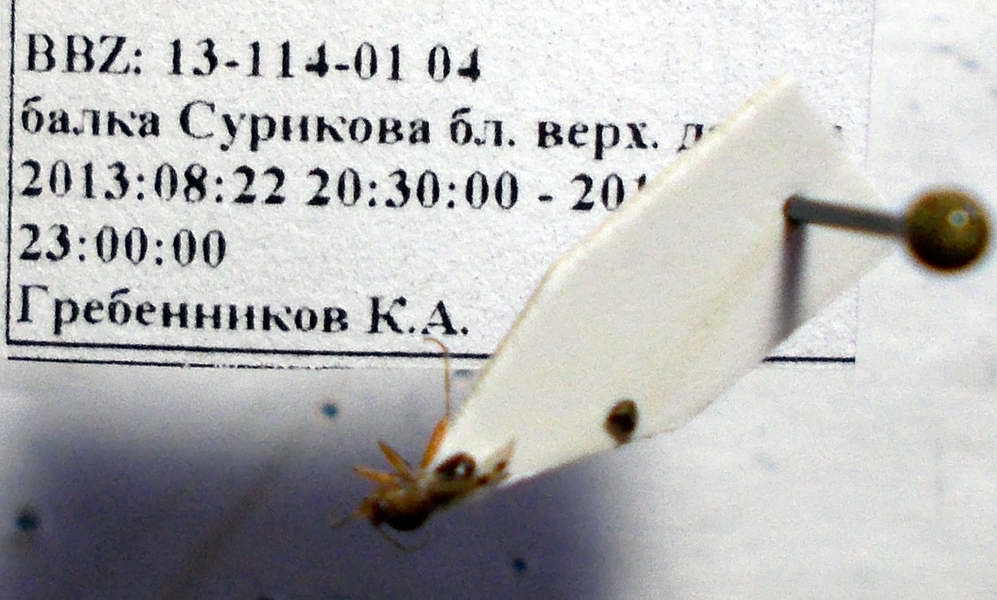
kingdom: Animalia
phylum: Arthropoda
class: Insecta
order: Hemiptera
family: Miridae
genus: Deraeocoris
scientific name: Deraeocoris serenus
